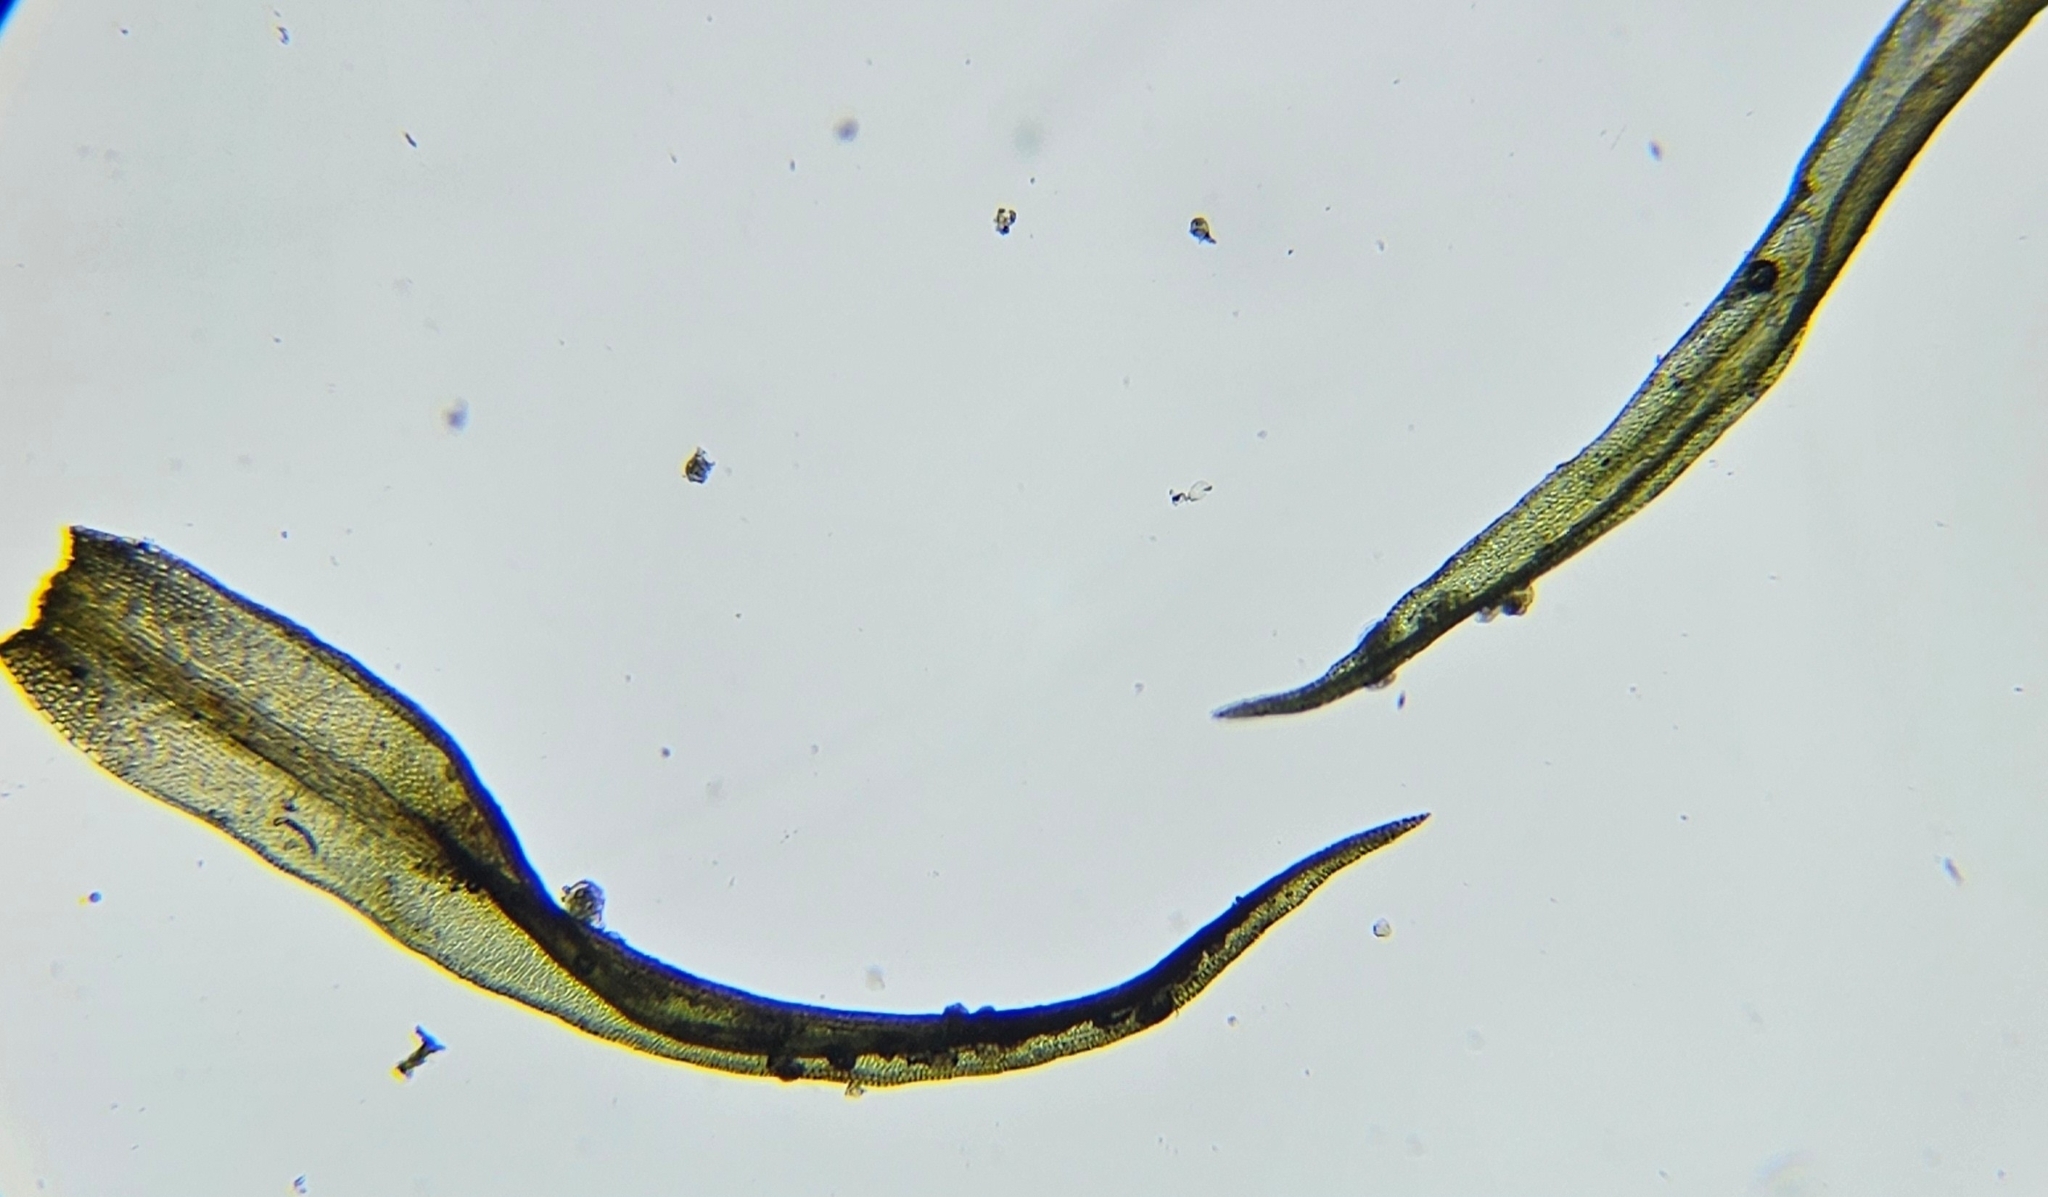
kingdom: Plantae
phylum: Bryophyta
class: Bryopsida
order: Dicranales
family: Rhabdoweisiaceae
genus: Dicranoweisia
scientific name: Dicranoweisia cirrata
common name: Common pincushion
